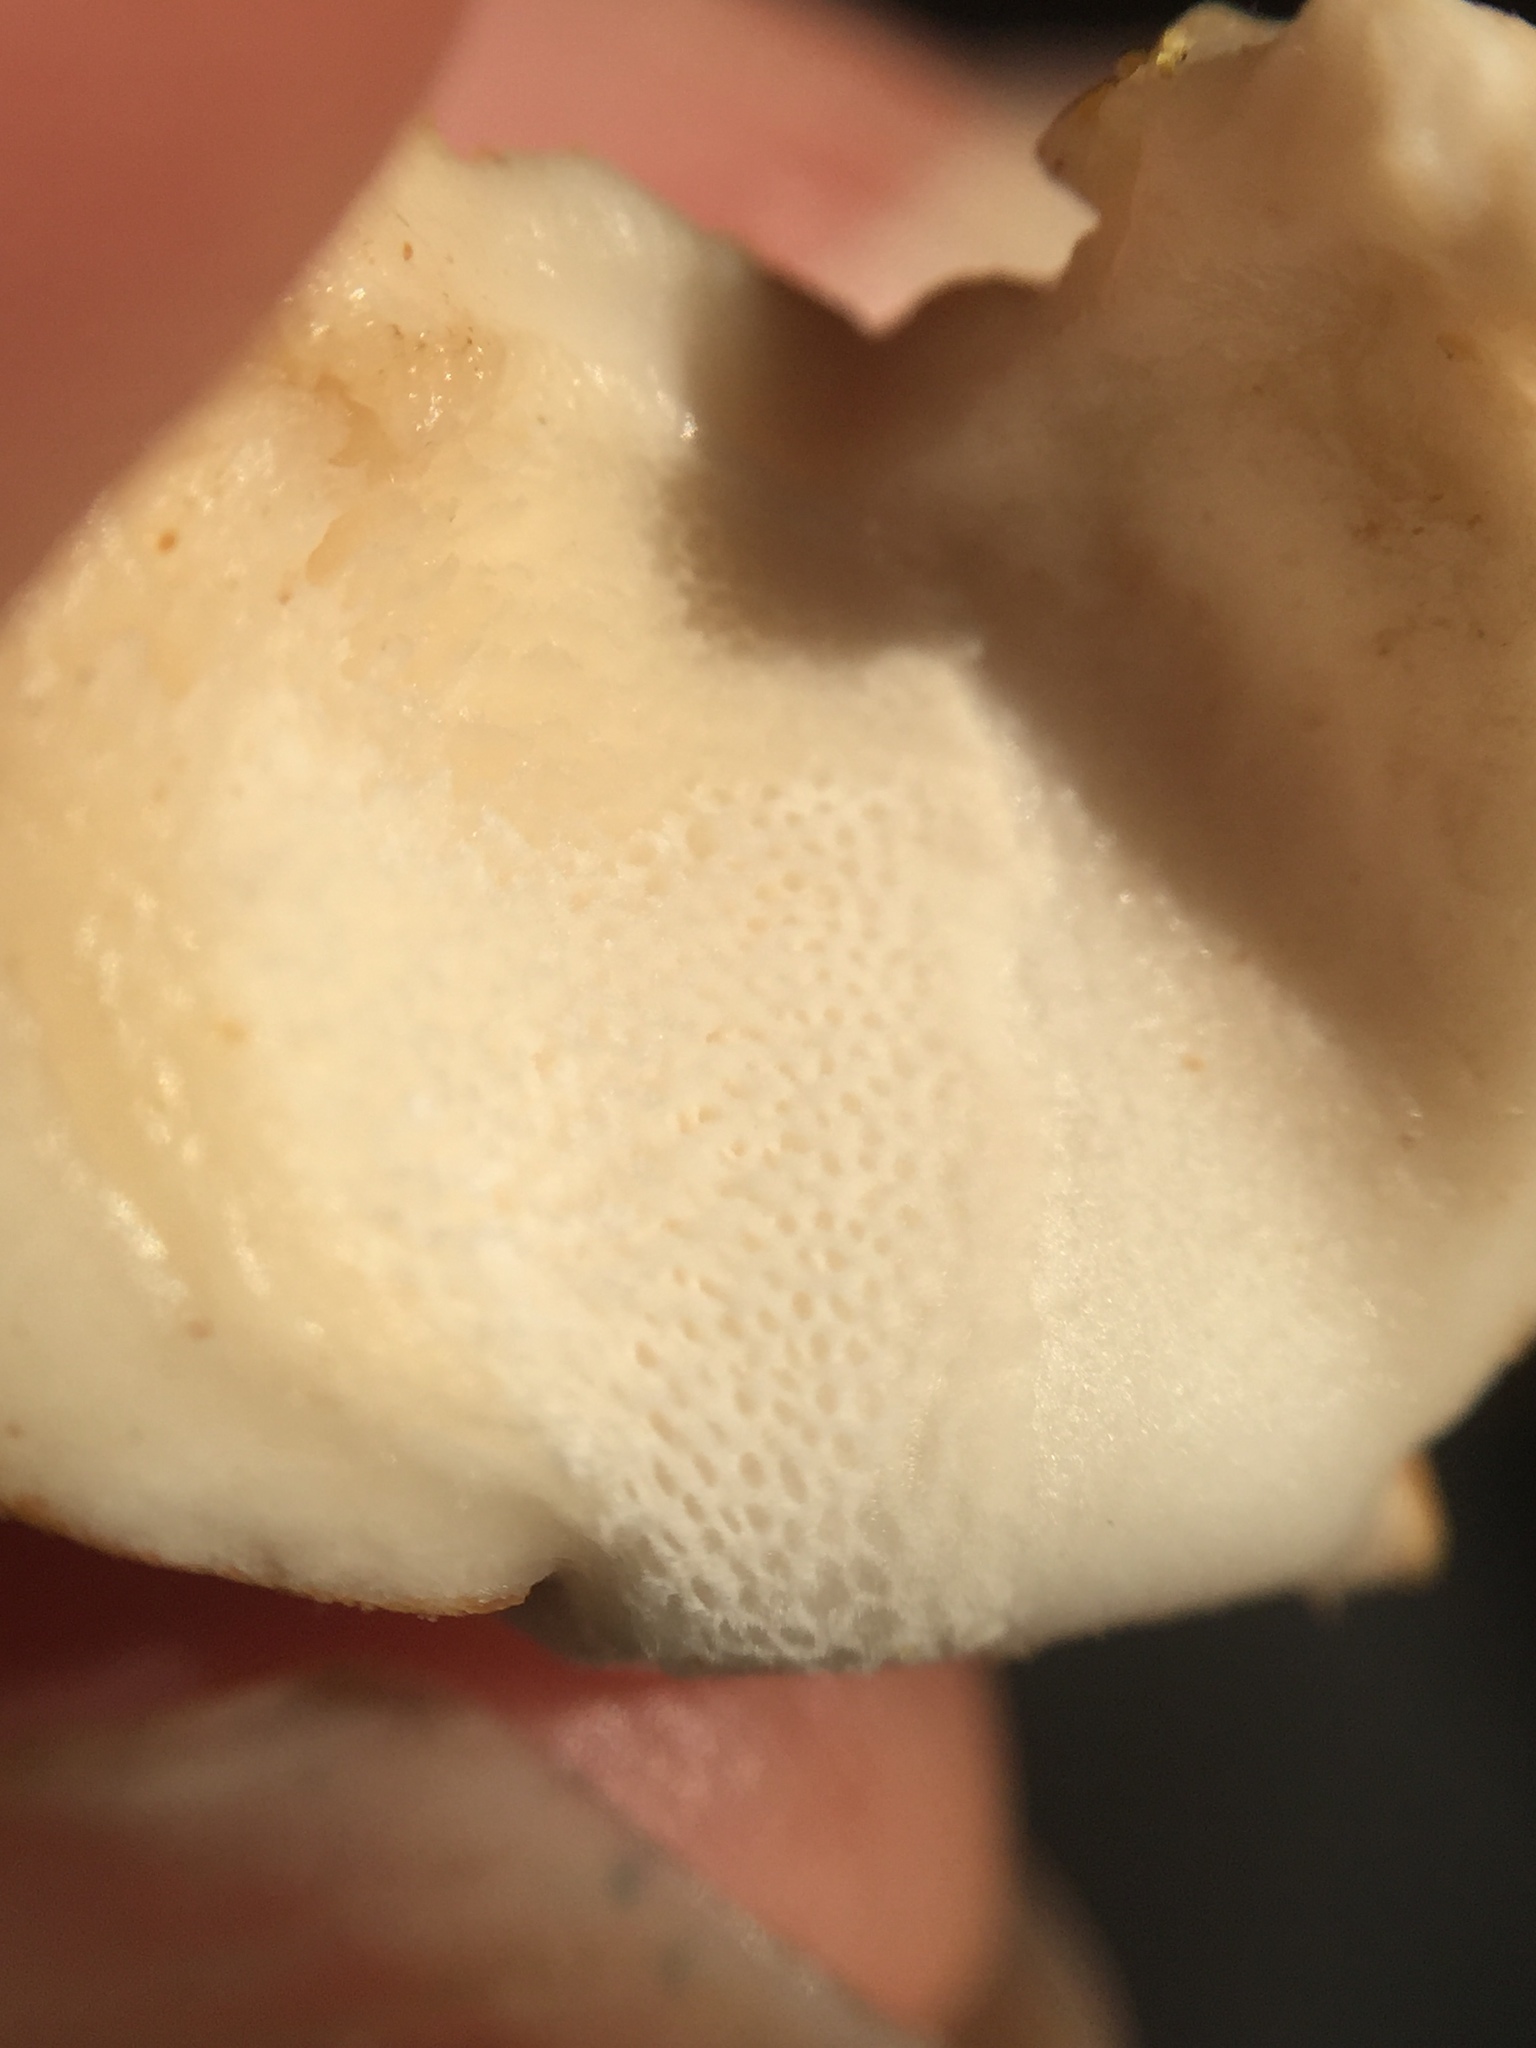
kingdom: Fungi
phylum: Basidiomycota
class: Agaricomycetes
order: Polyporales
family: Polyporaceae
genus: Cryptoporus
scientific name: Cryptoporus volvatus
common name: Veiled polypore
